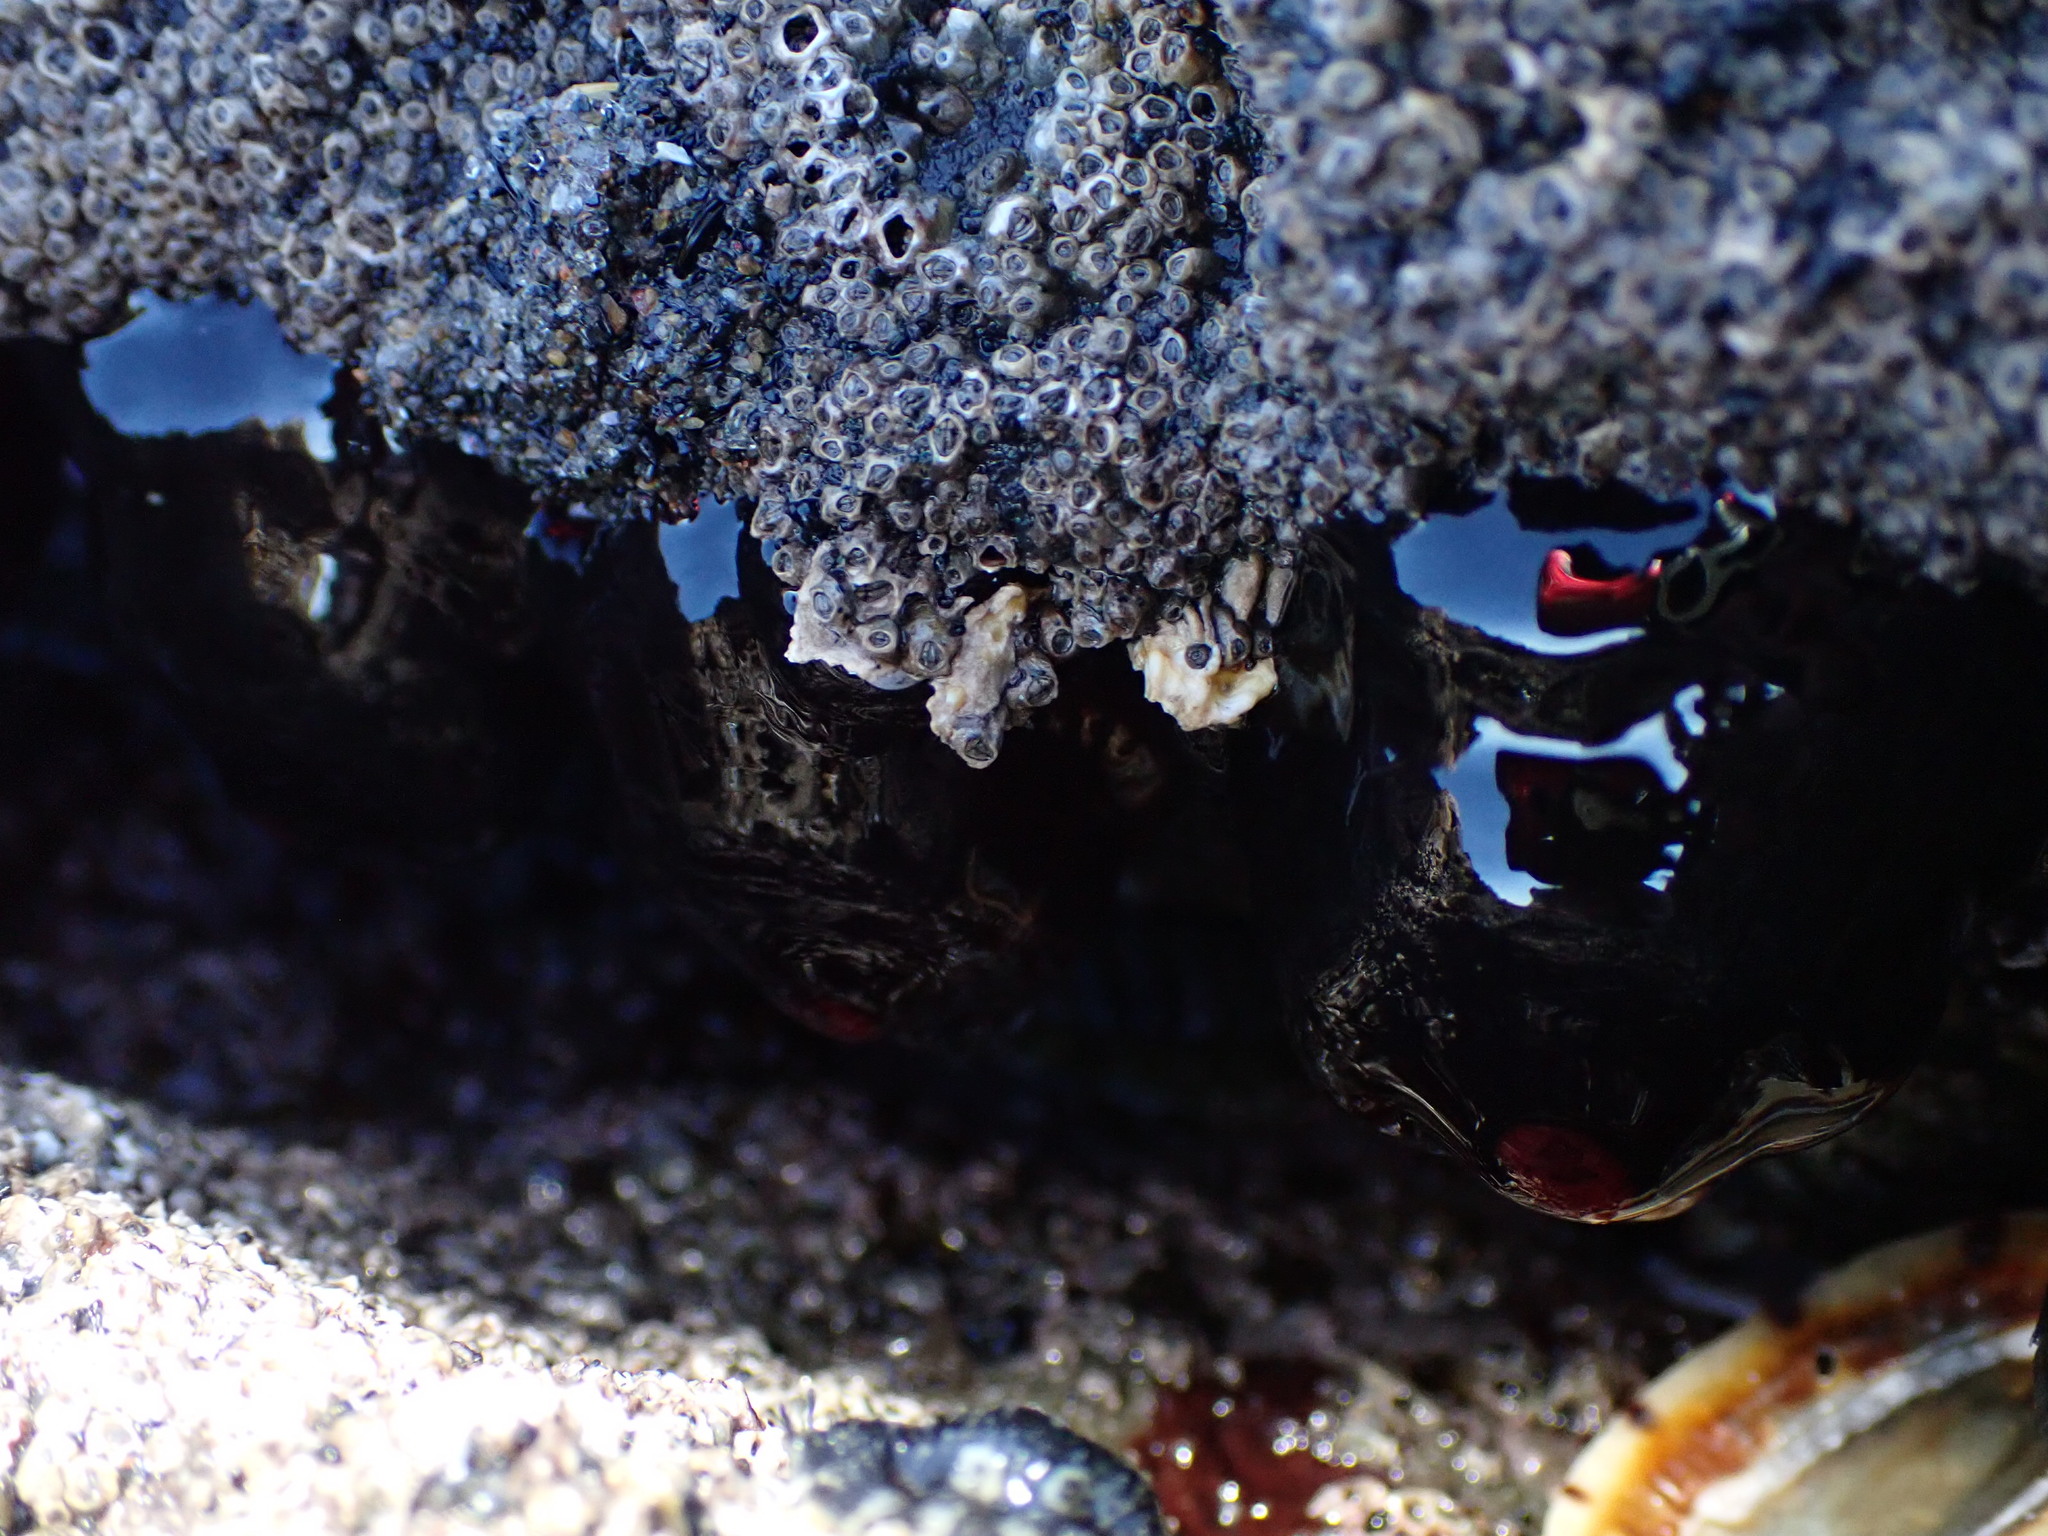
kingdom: Animalia
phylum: Cnidaria
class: Anthozoa
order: Actiniaria
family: Actiniidae
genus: Actinia
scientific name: Actinia tenebrosa
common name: Waratah anemone
